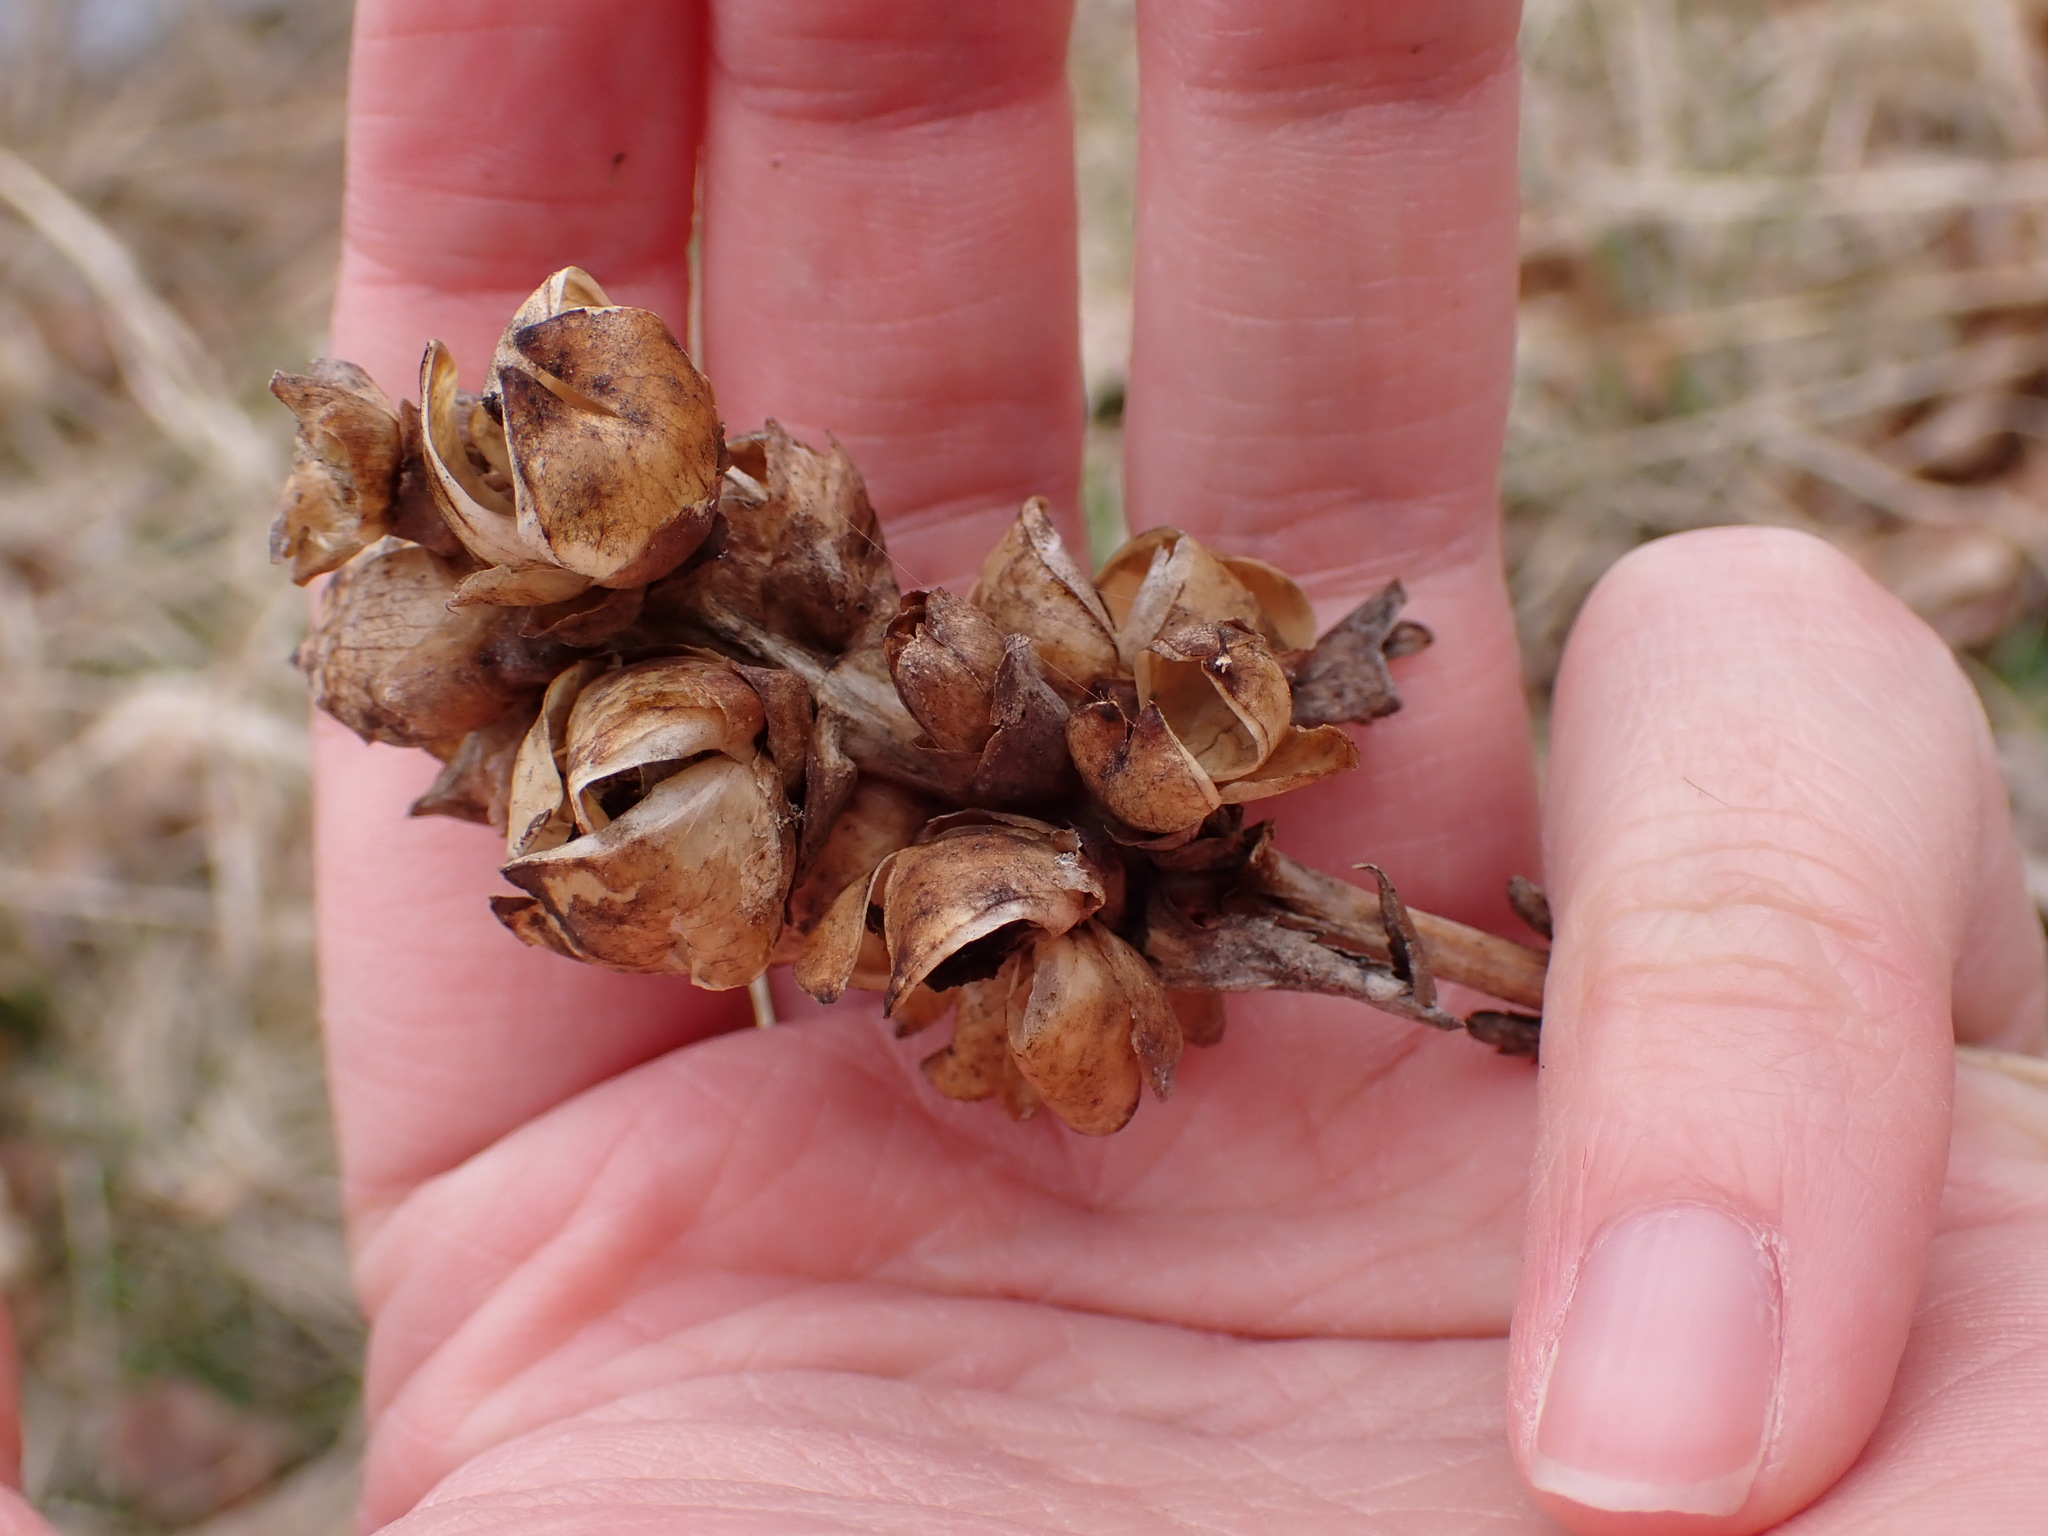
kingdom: Plantae
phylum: Tracheophyta
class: Magnoliopsida
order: Lamiales
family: Plantaginaceae
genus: Chelone
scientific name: Chelone glabra
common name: Snakehead
